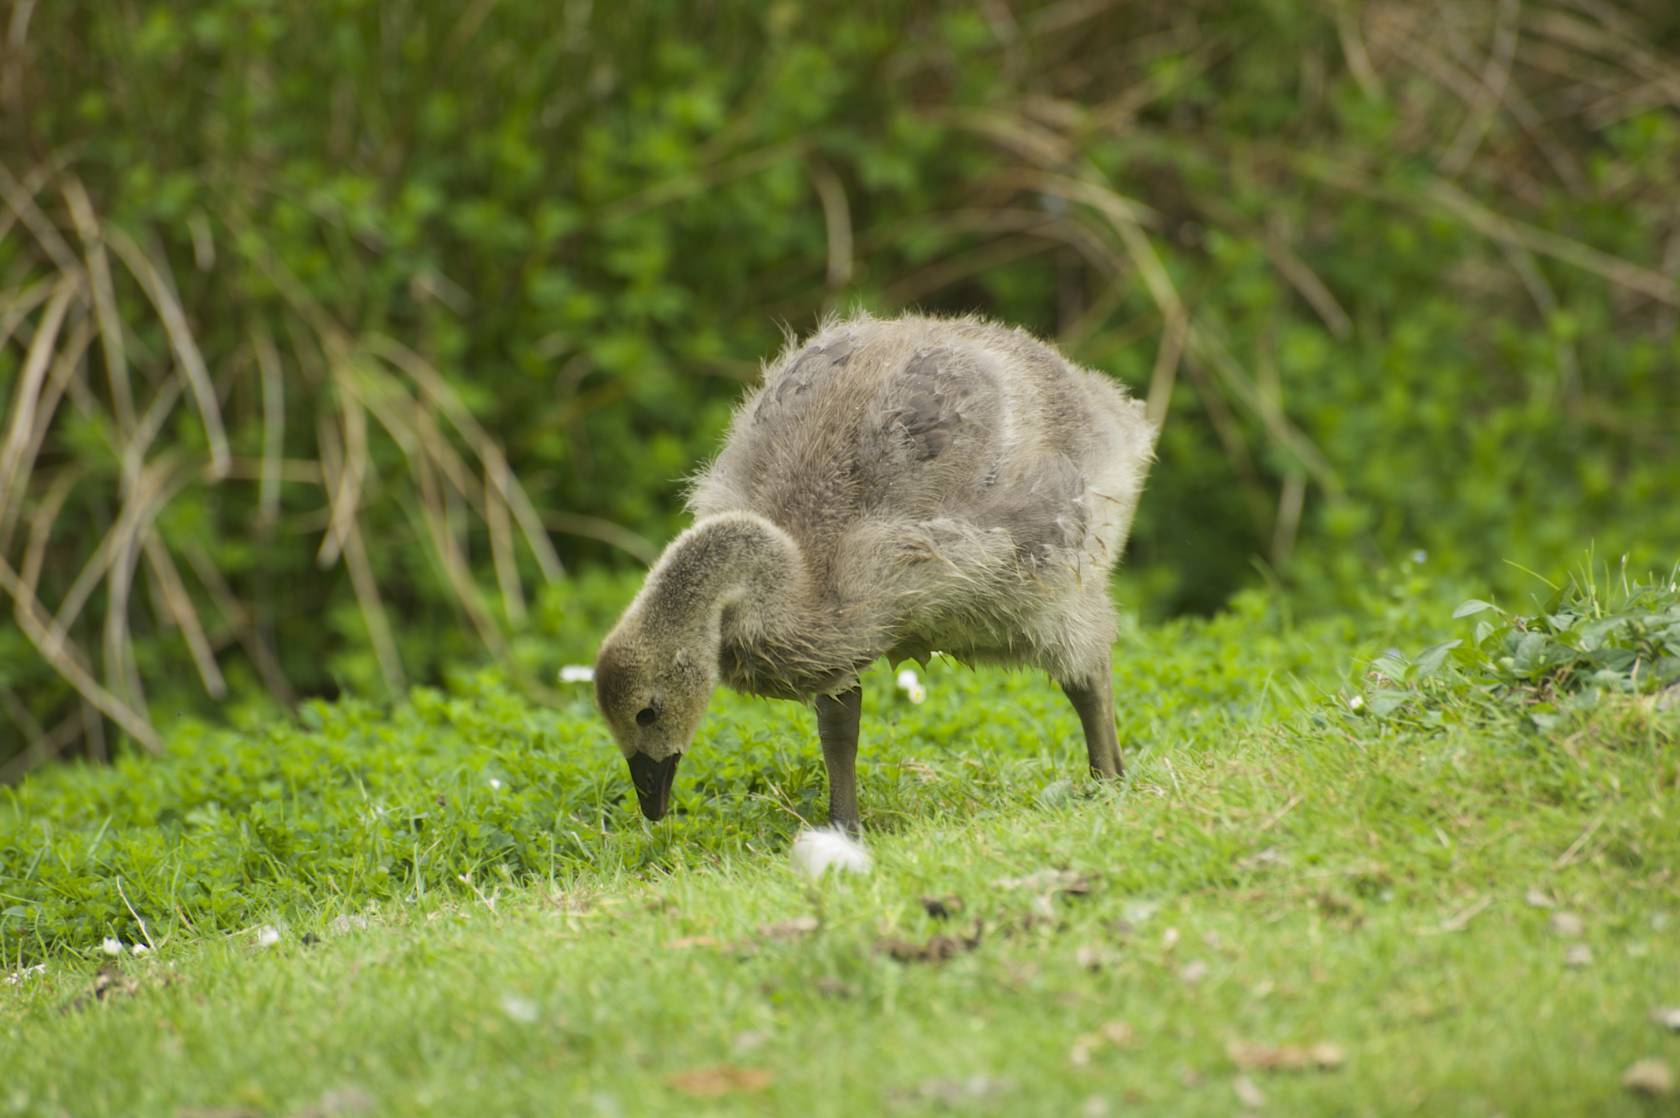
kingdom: Animalia
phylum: Chordata
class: Aves
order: Anseriformes
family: Anatidae
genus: Branta
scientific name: Branta canadensis
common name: Canada goose
